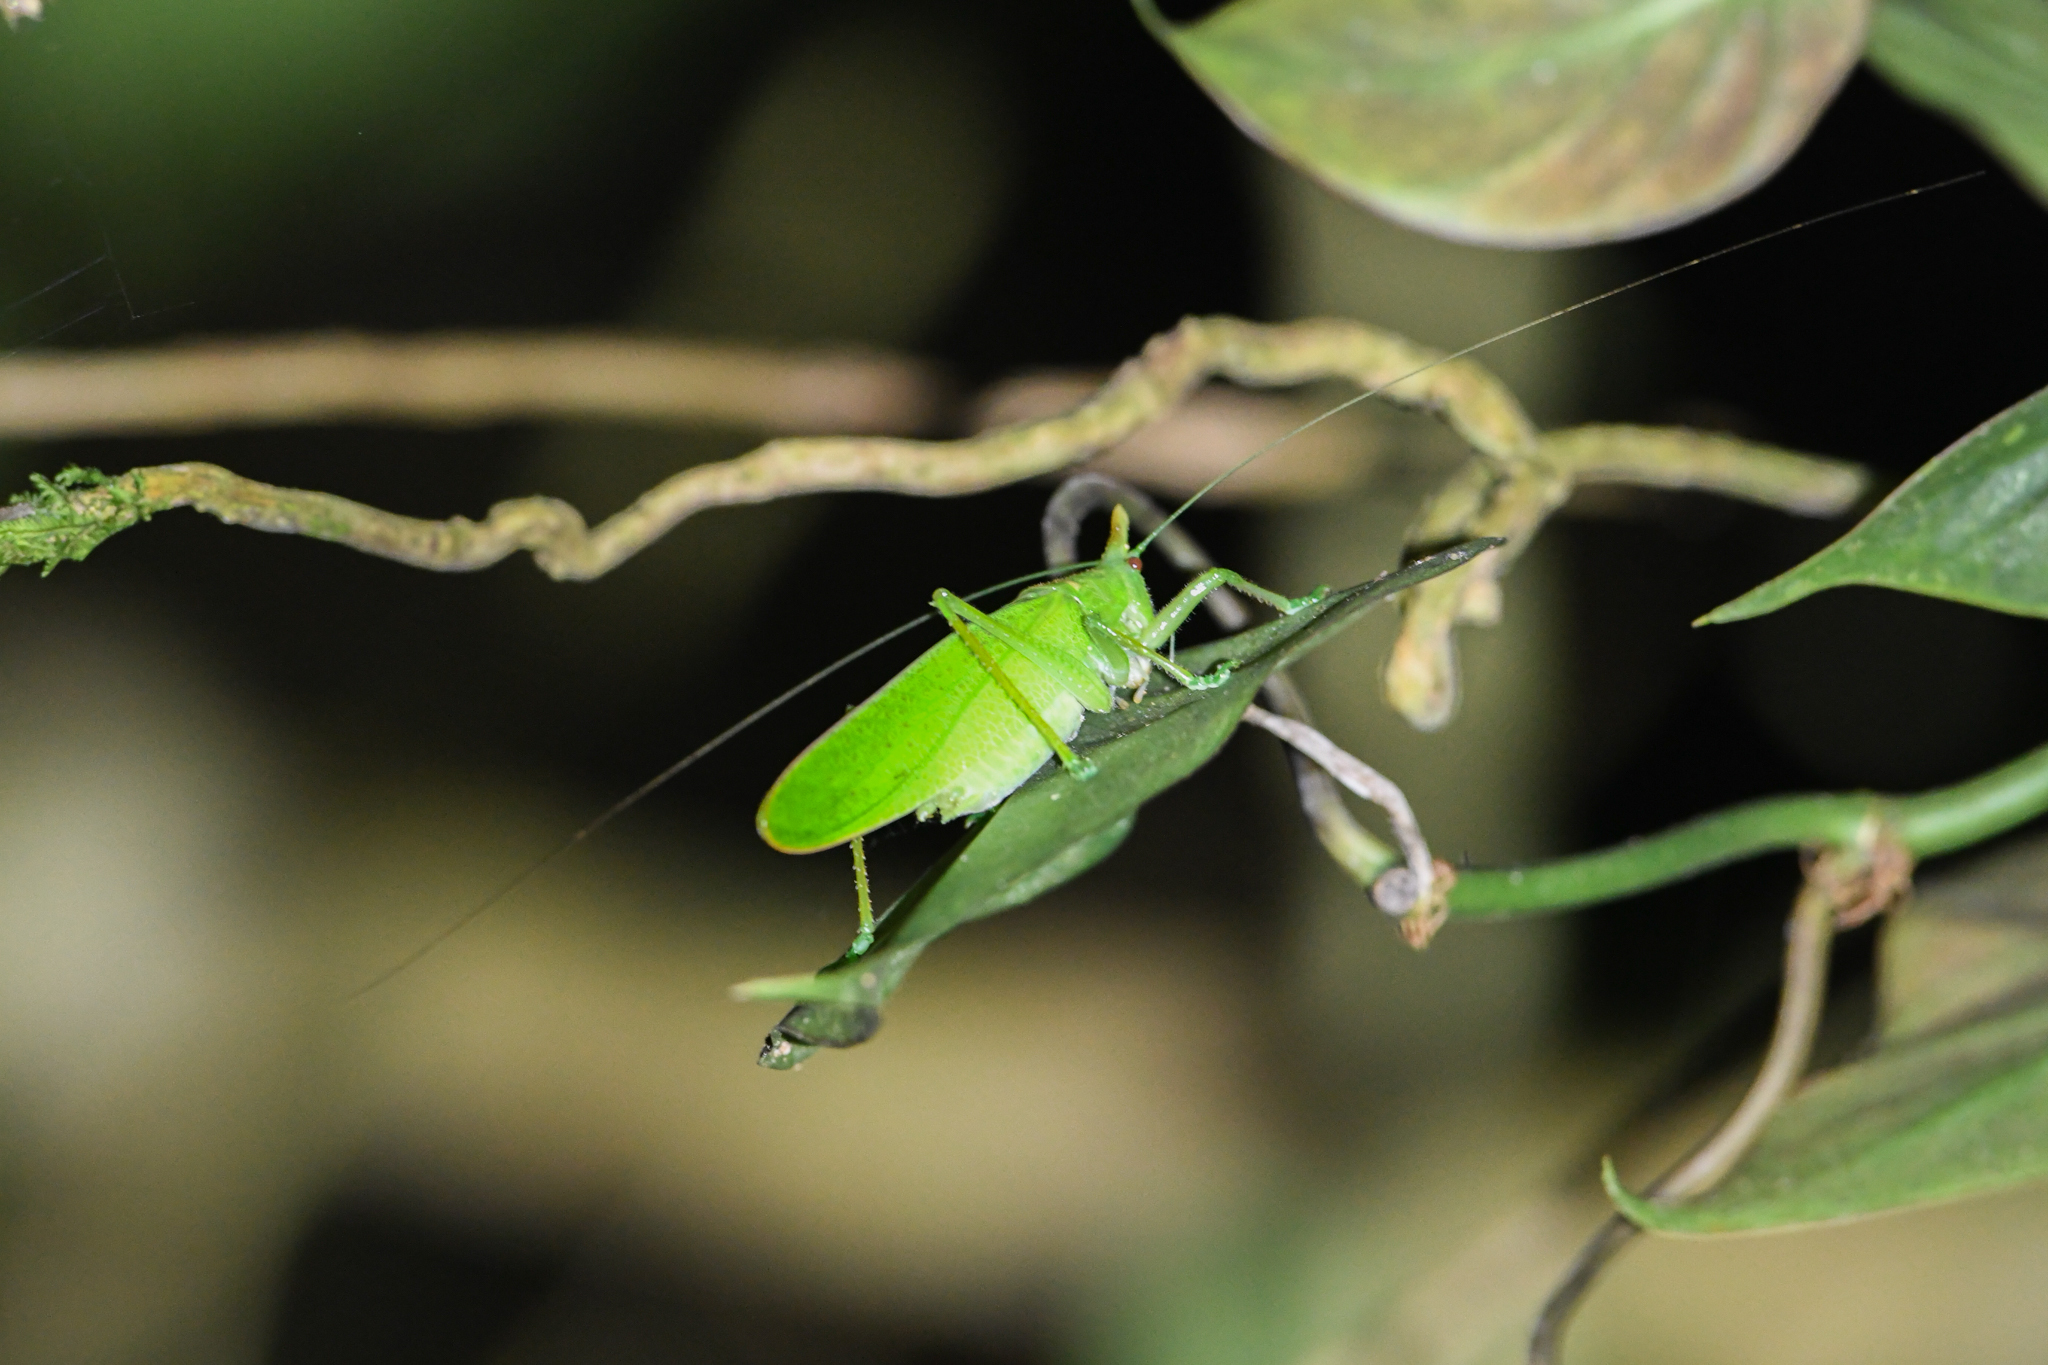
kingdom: Animalia
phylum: Arthropoda
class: Insecta
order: Orthoptera
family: Tettigoniidae
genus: Copiphora
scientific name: Copiphora cultricornis
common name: Yellow-faced spear bearer
